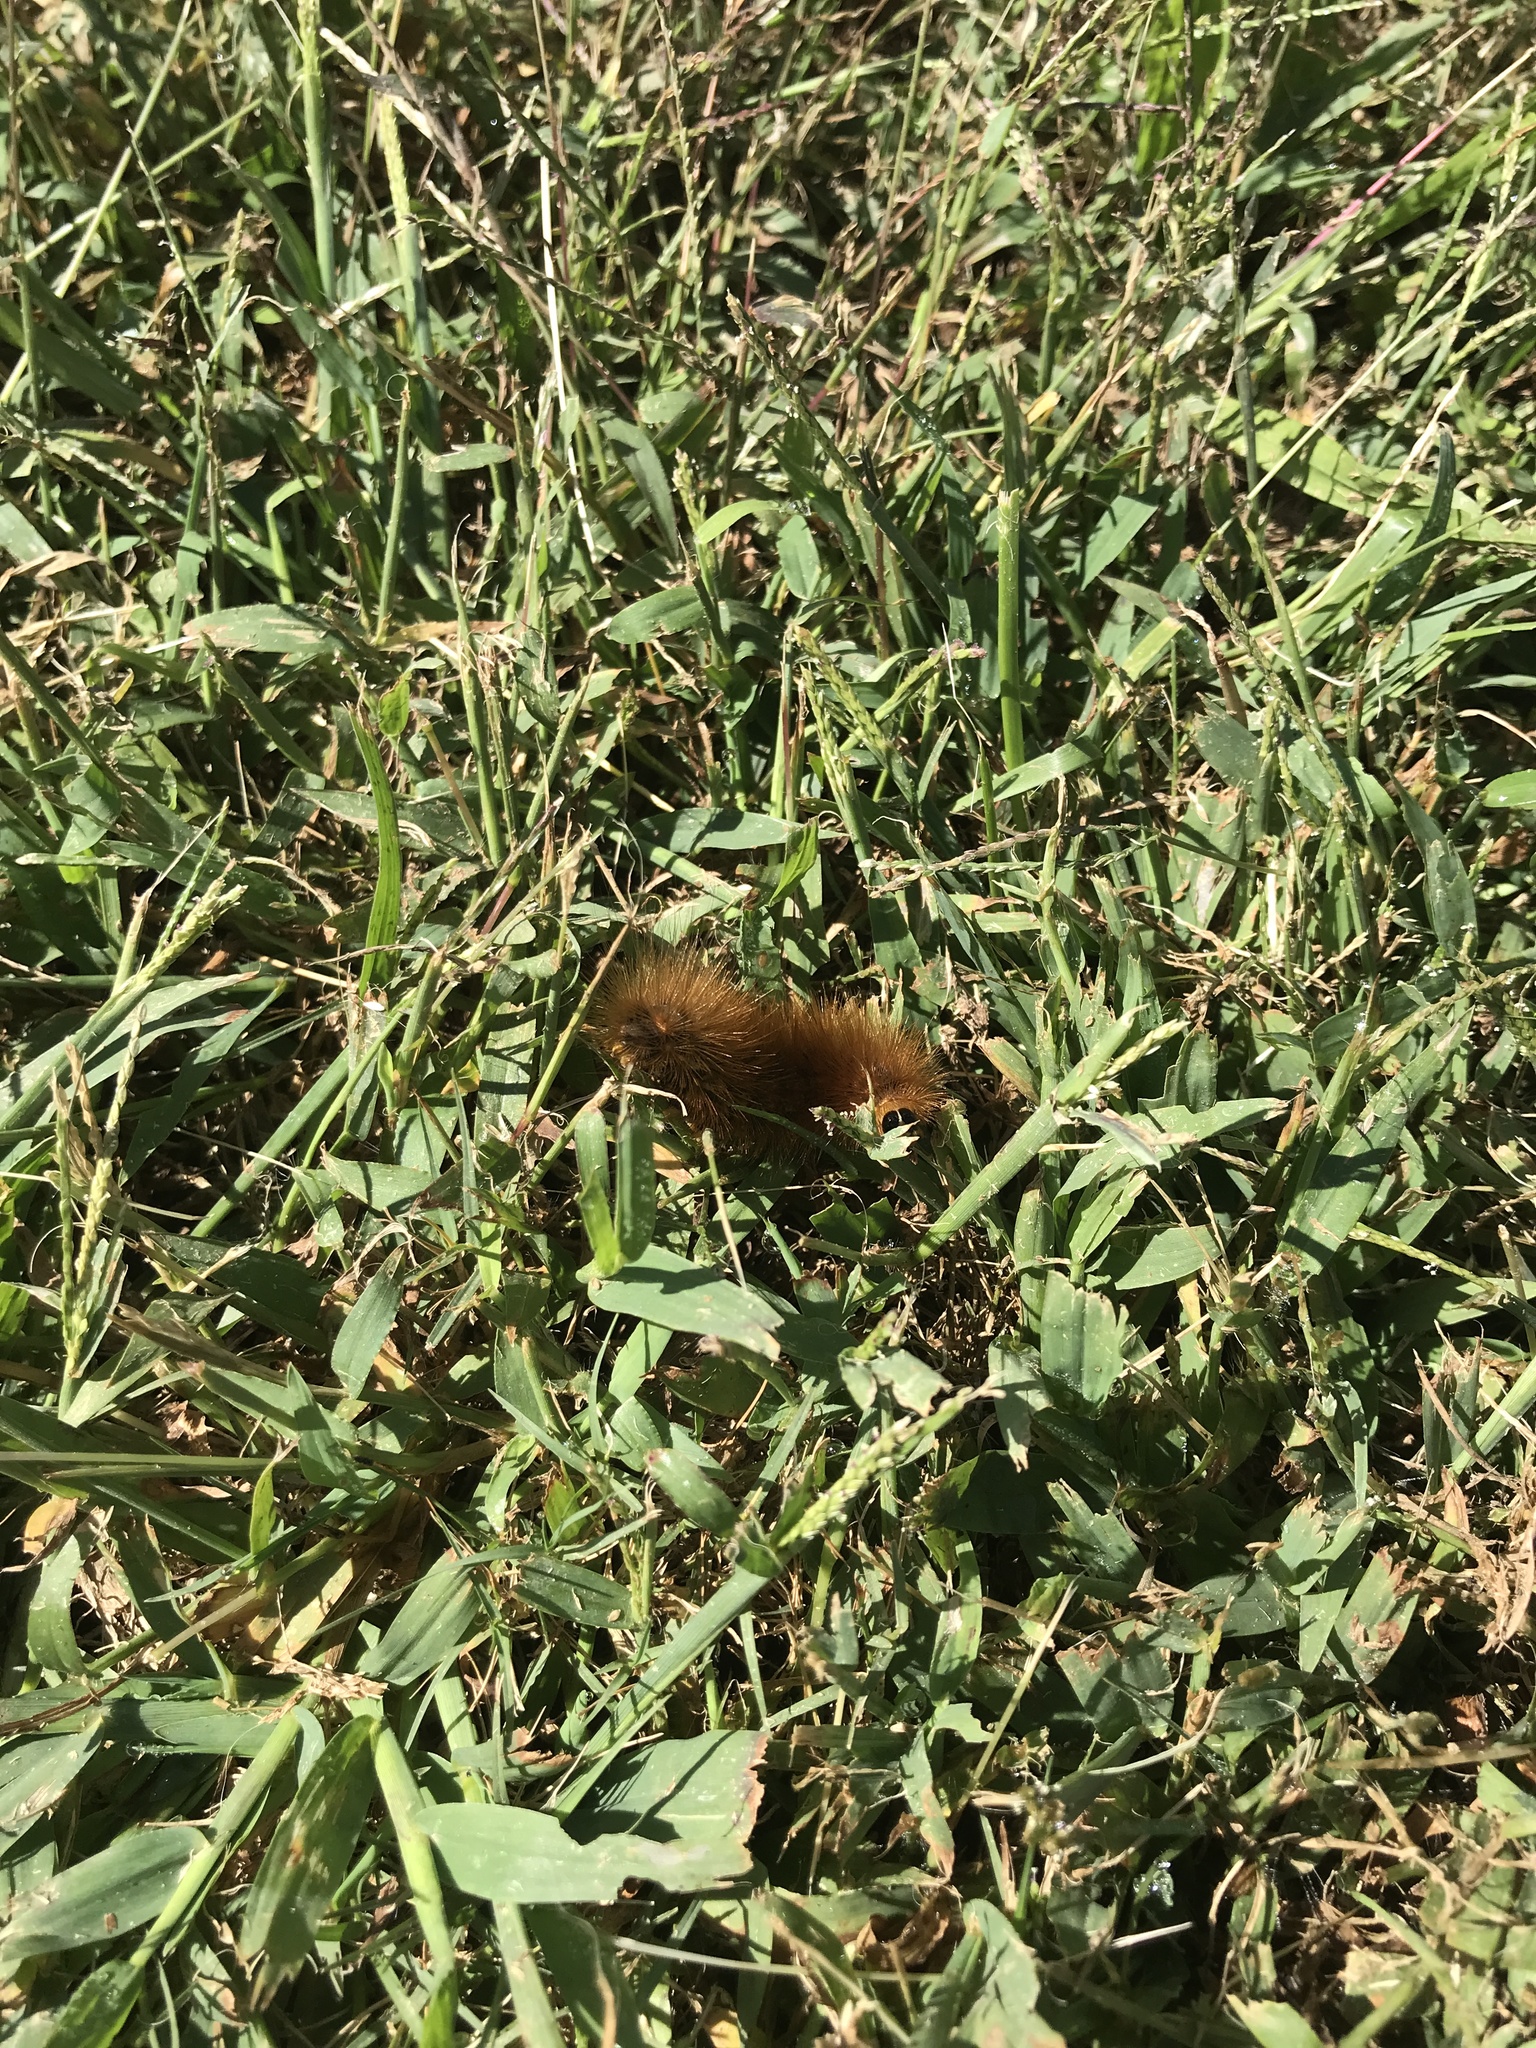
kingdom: Animalia
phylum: Arthropoda
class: Insecta
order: Lepidoptera
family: Erebidae
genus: Estigmene
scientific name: Estigmene acrea
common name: Salt marsh moth
